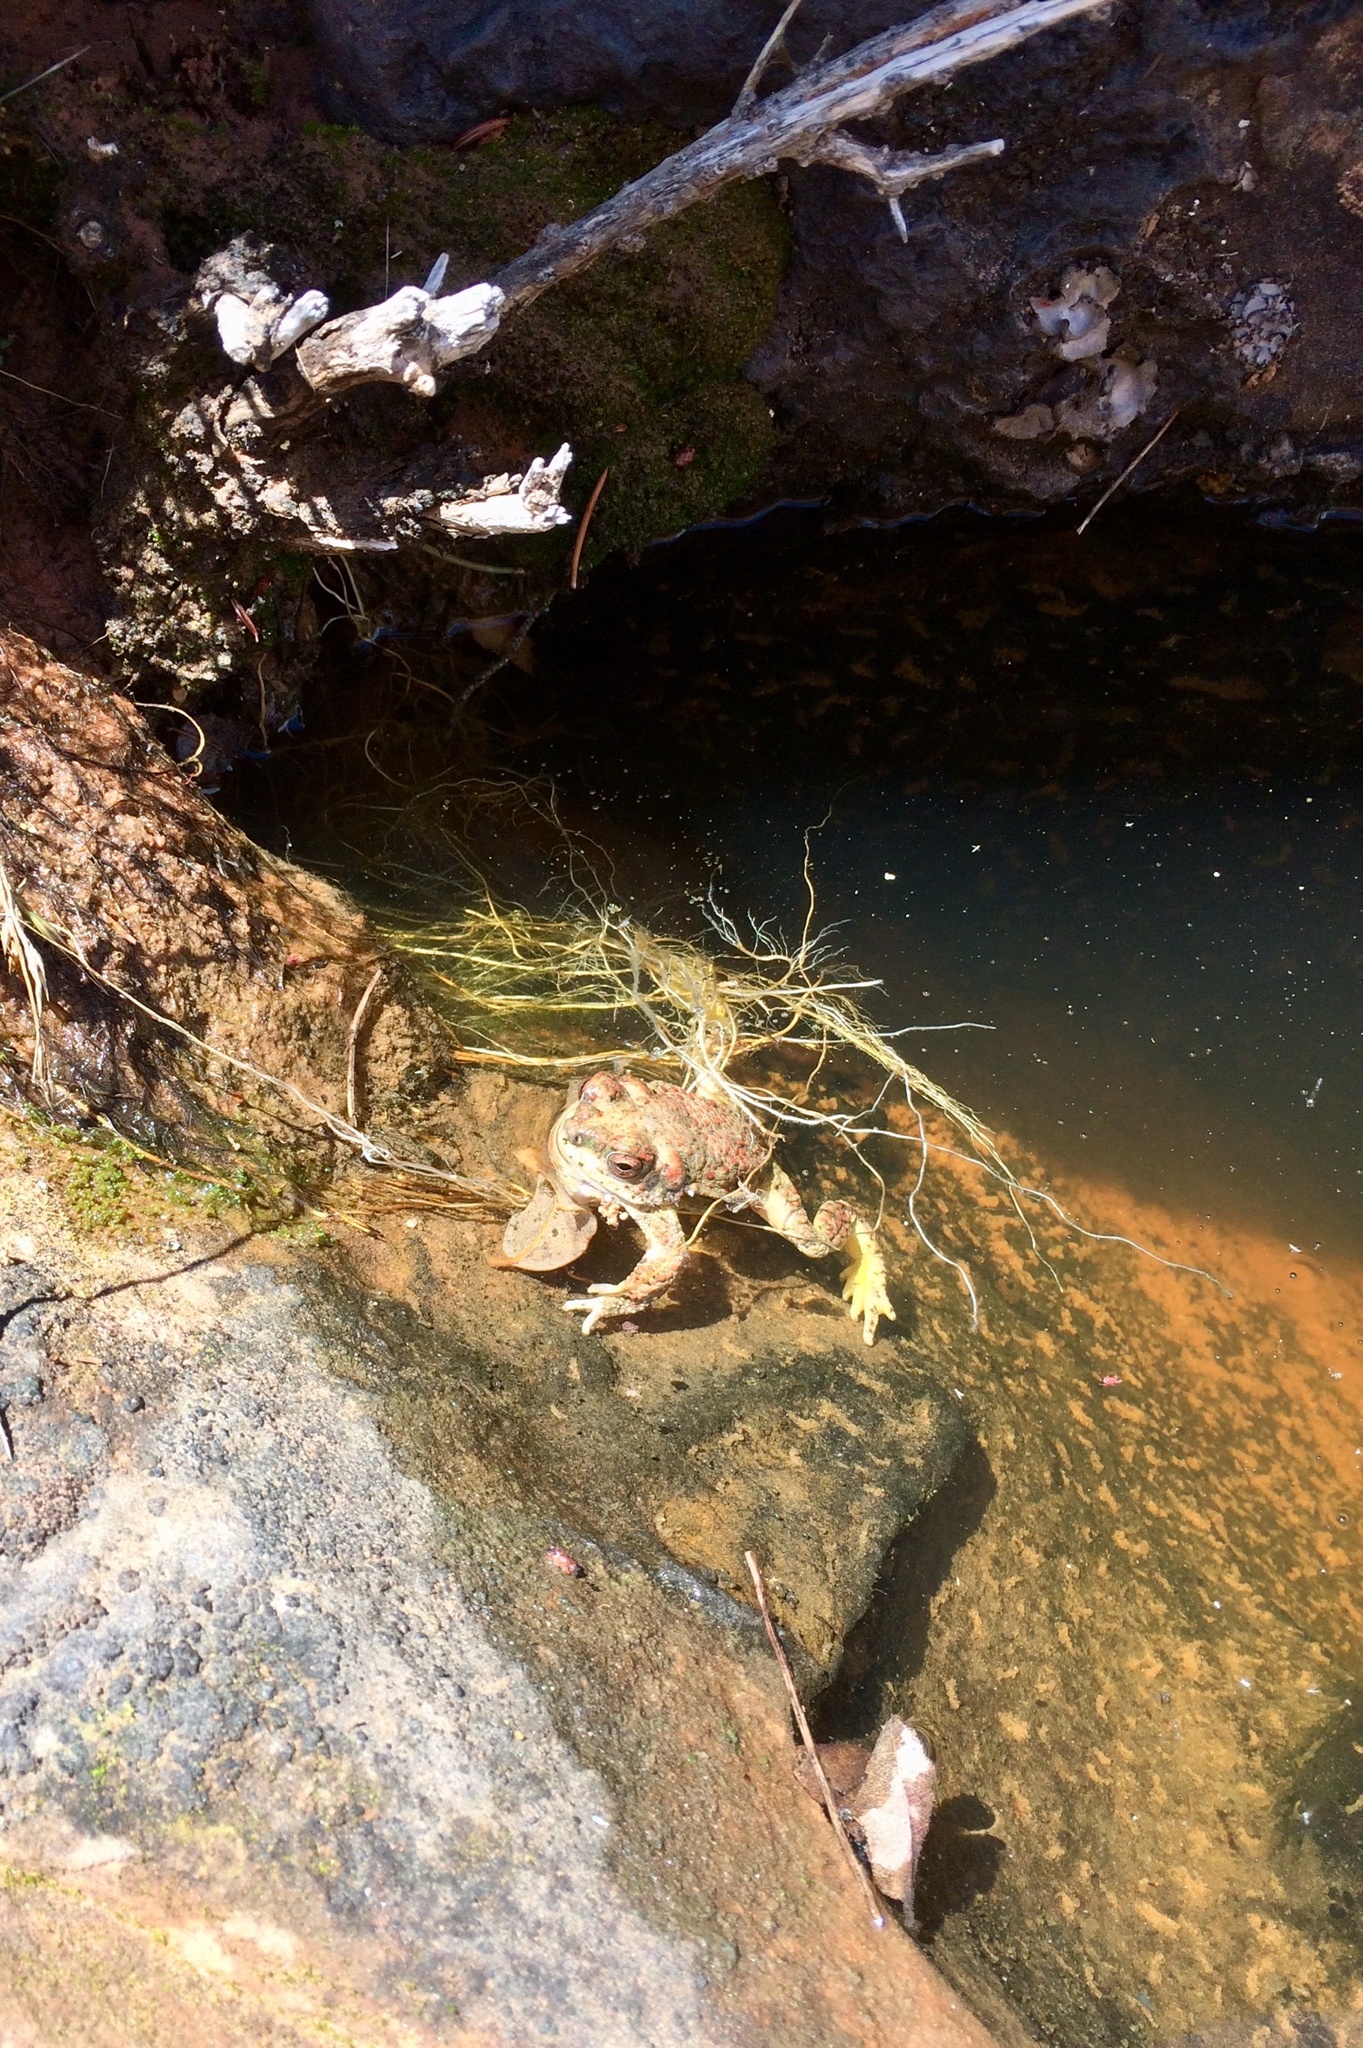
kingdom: Animalia
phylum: Chordata
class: Amphibia
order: Anura
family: Bufonidae
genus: Anaxyrus
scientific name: Anaxyrus punctatus
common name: Red-spotted toad
